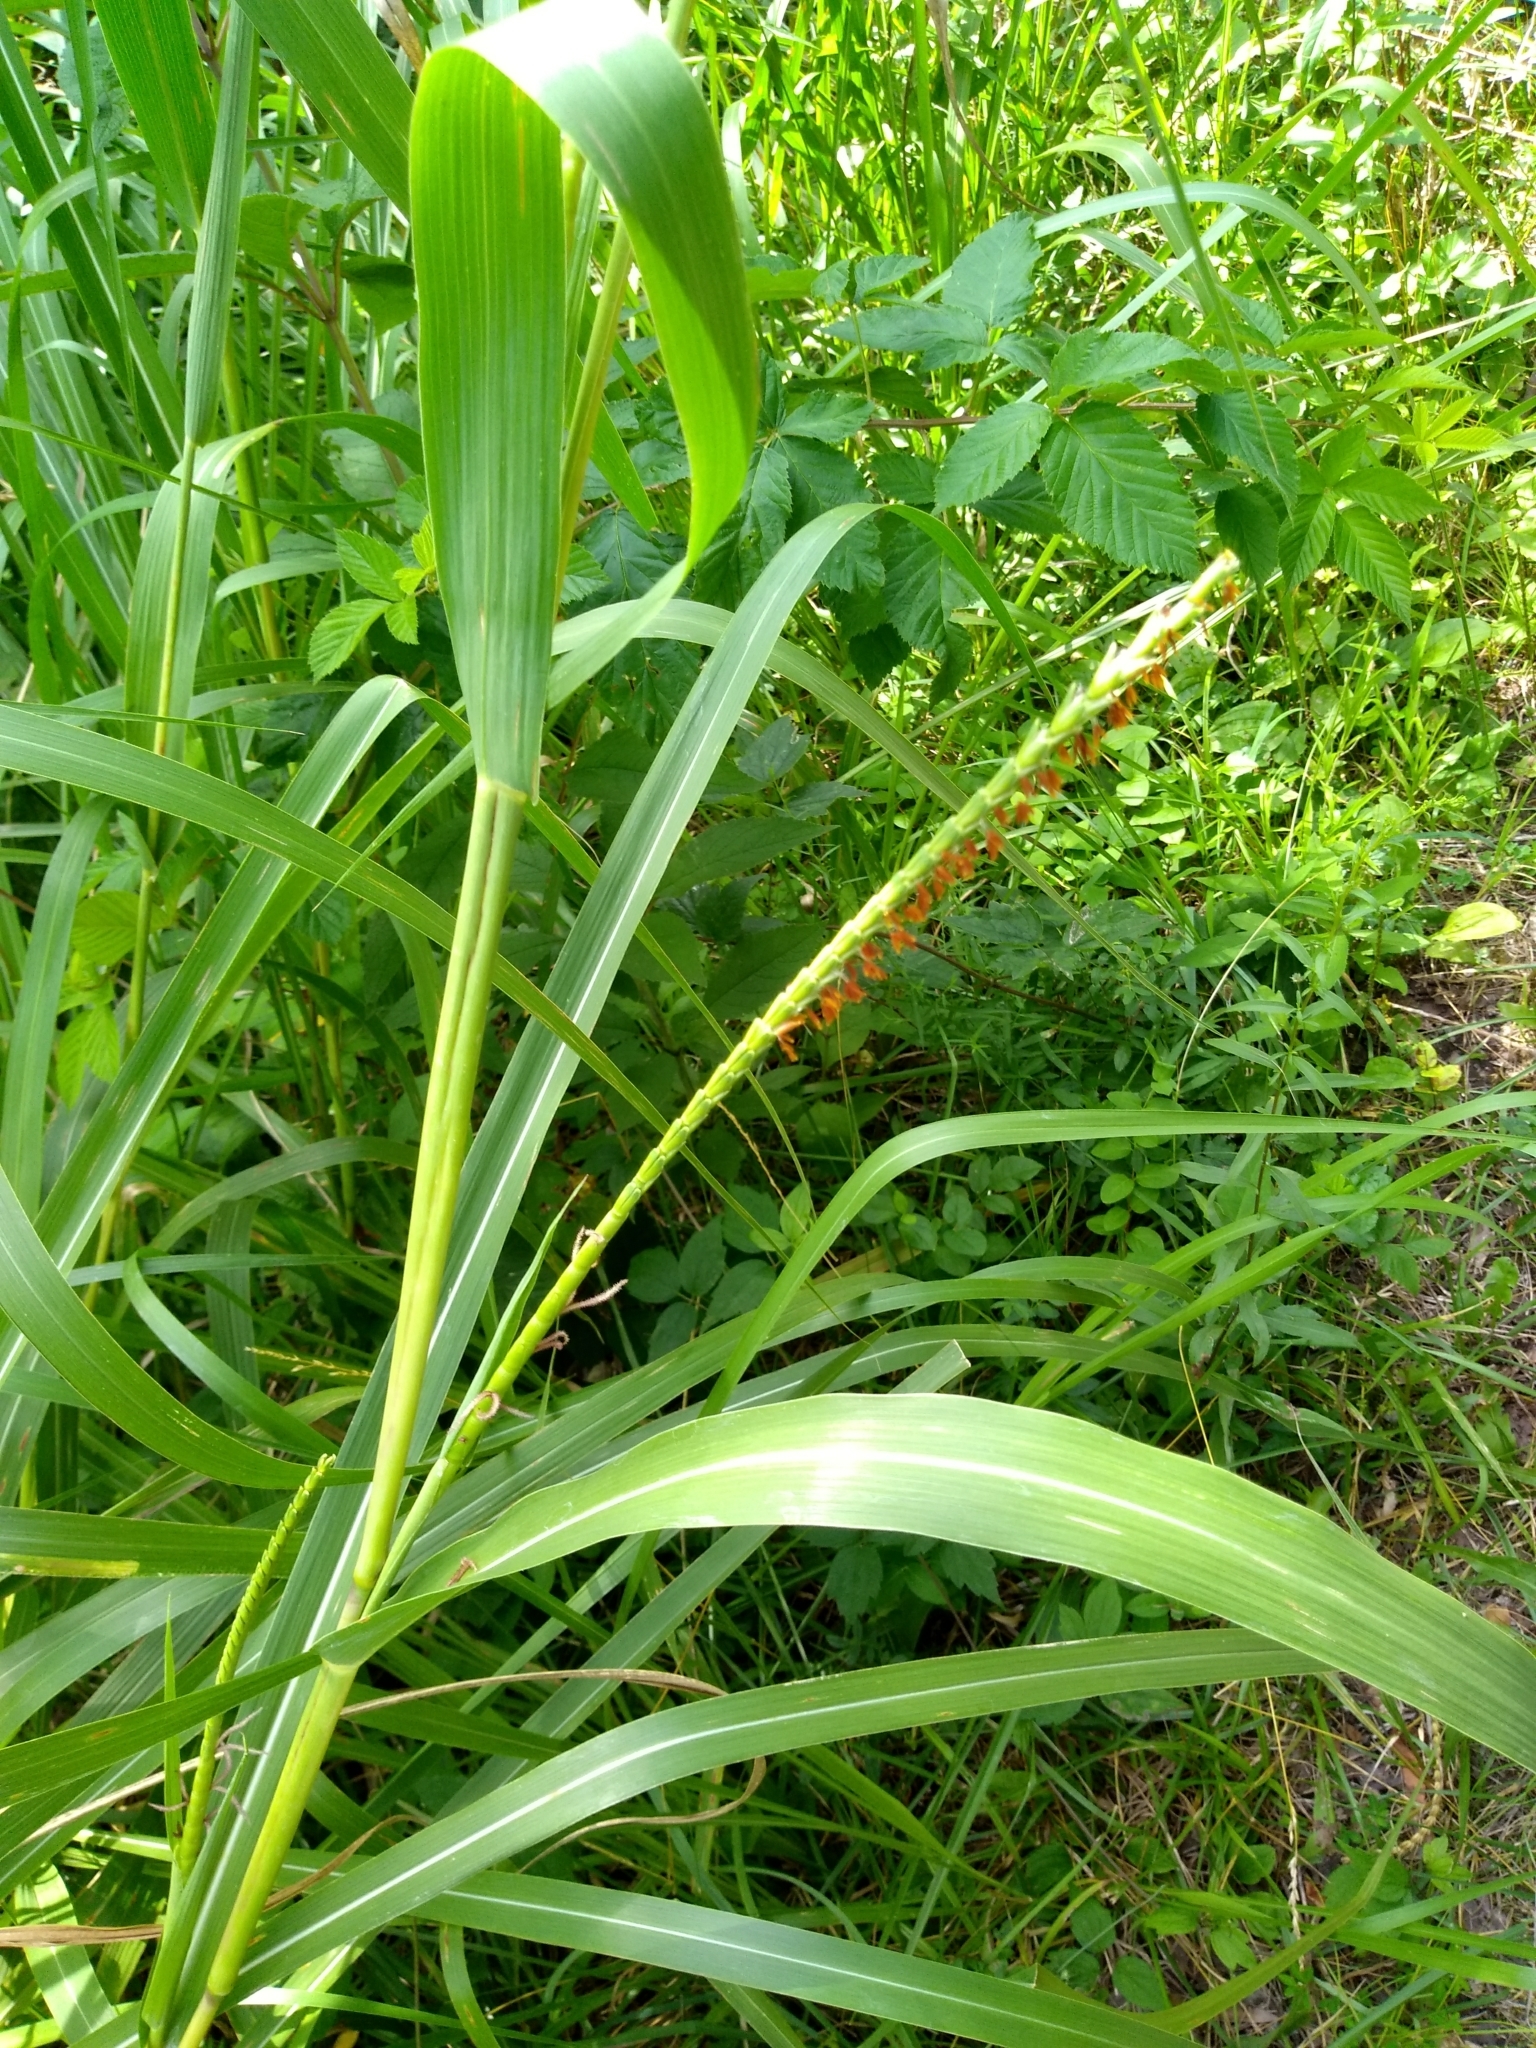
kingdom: Plantae
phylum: Tracheophyta
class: Liliopsida
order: Poales
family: Poaceae
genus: Tripsacum
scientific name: Tripsacum dactyloides
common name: Buffalo-grass
